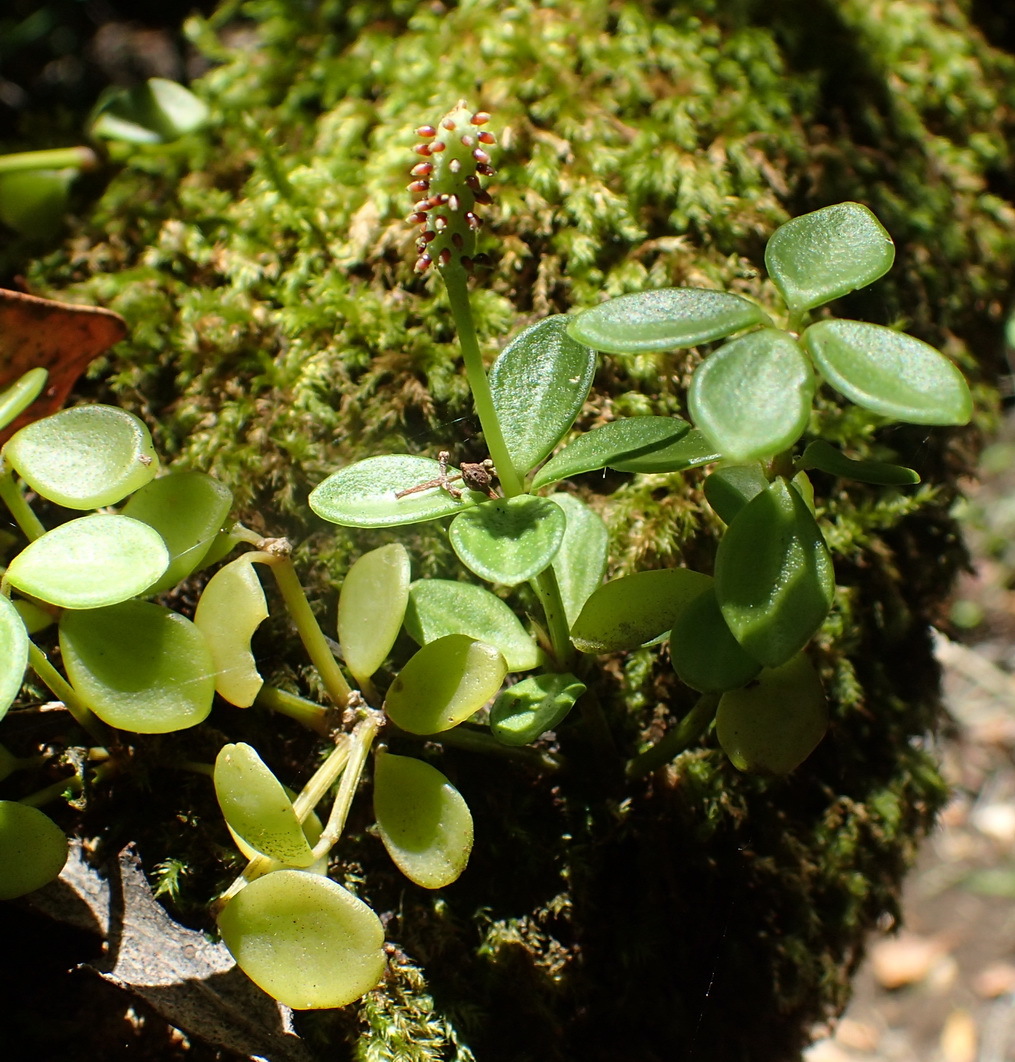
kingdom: Plantae
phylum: Tracheophyta
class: Magnoliopsida
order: Piperales
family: Piperaceae
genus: Peperomia
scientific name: Peperomia tetraphylla
